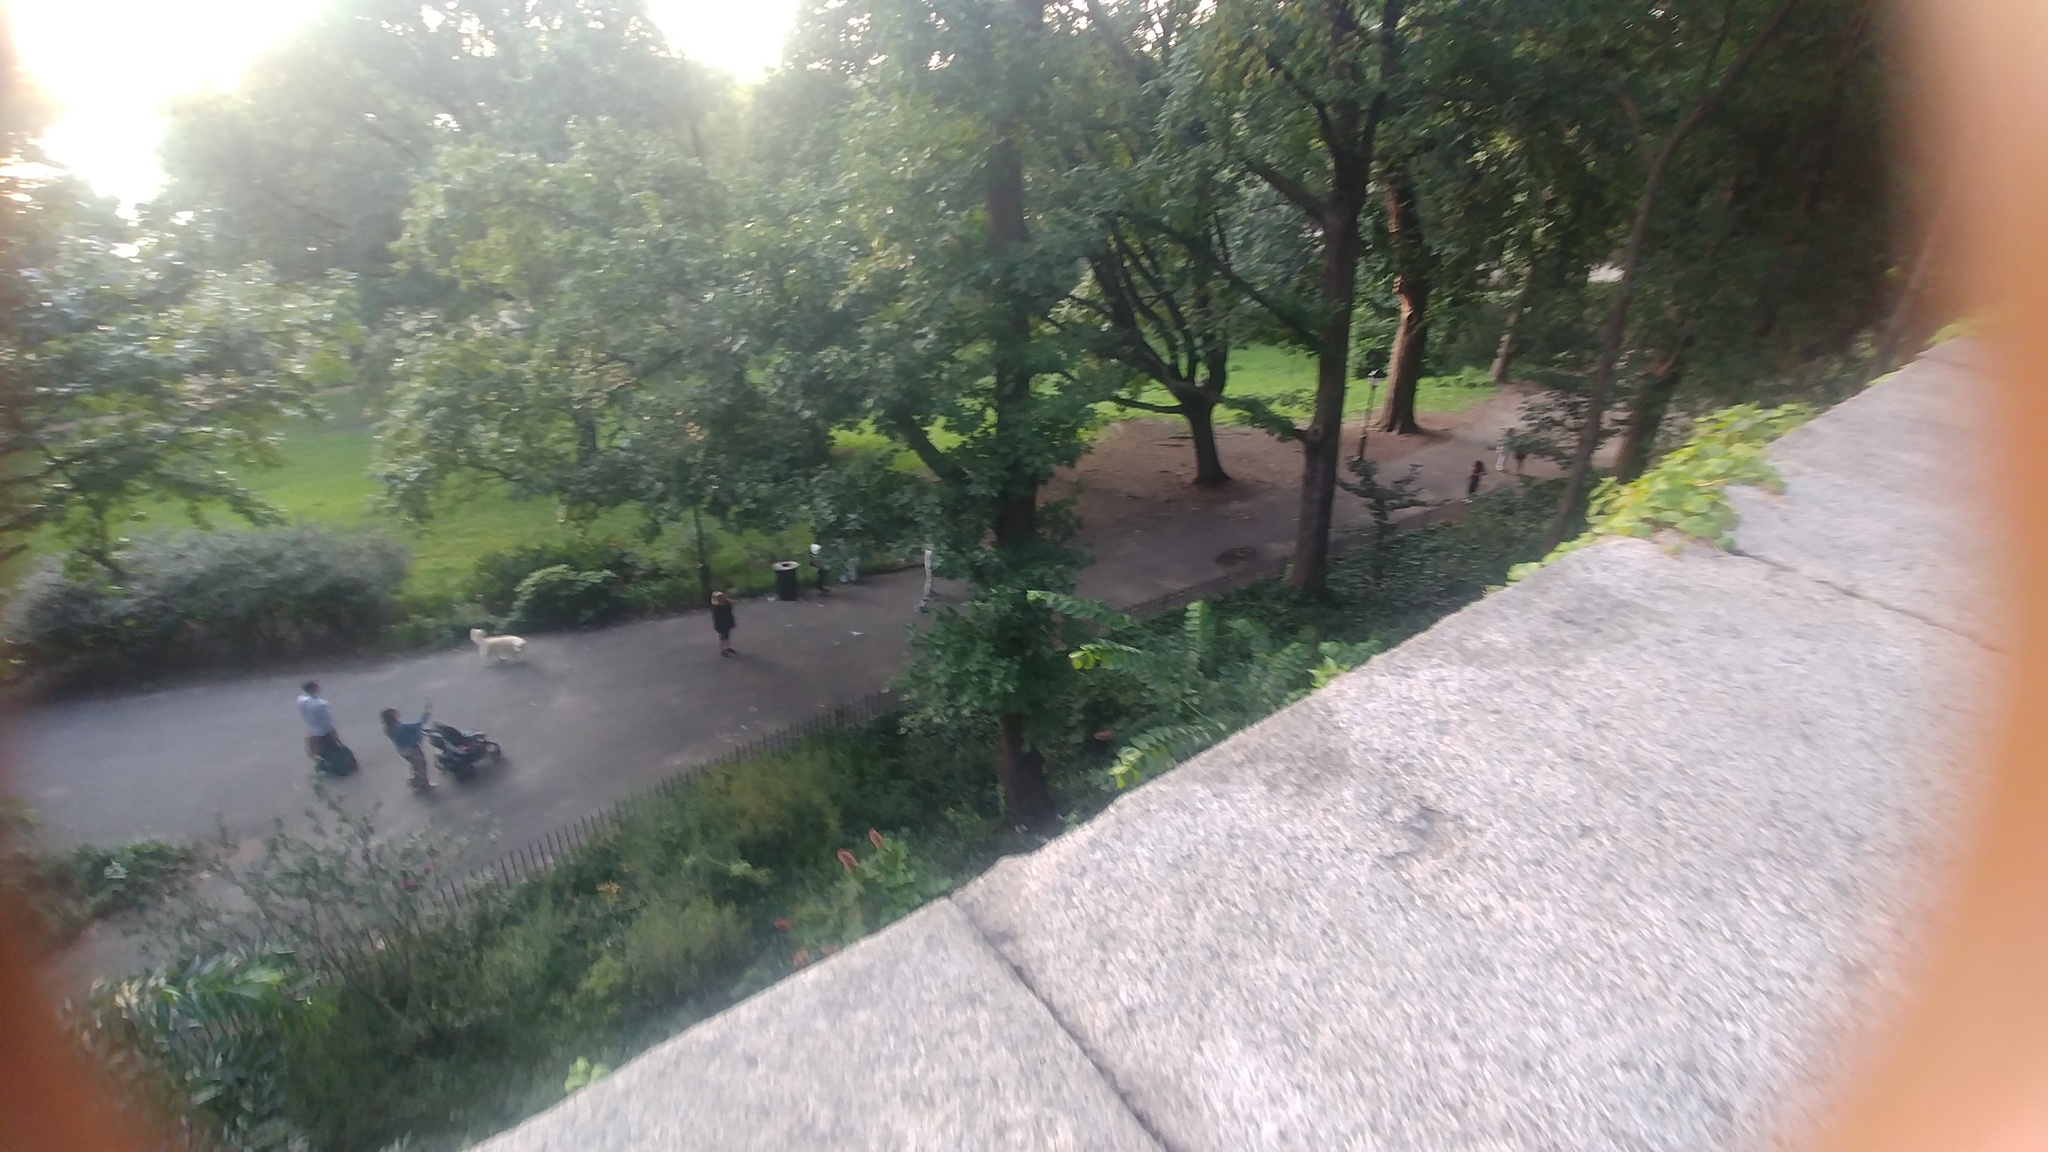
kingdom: Animalia
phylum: Chordata
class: Aves
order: Accipitriformes
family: Accipitridae
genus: Buteo
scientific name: Buteo jamaicensis
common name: Red-tailed hawk
